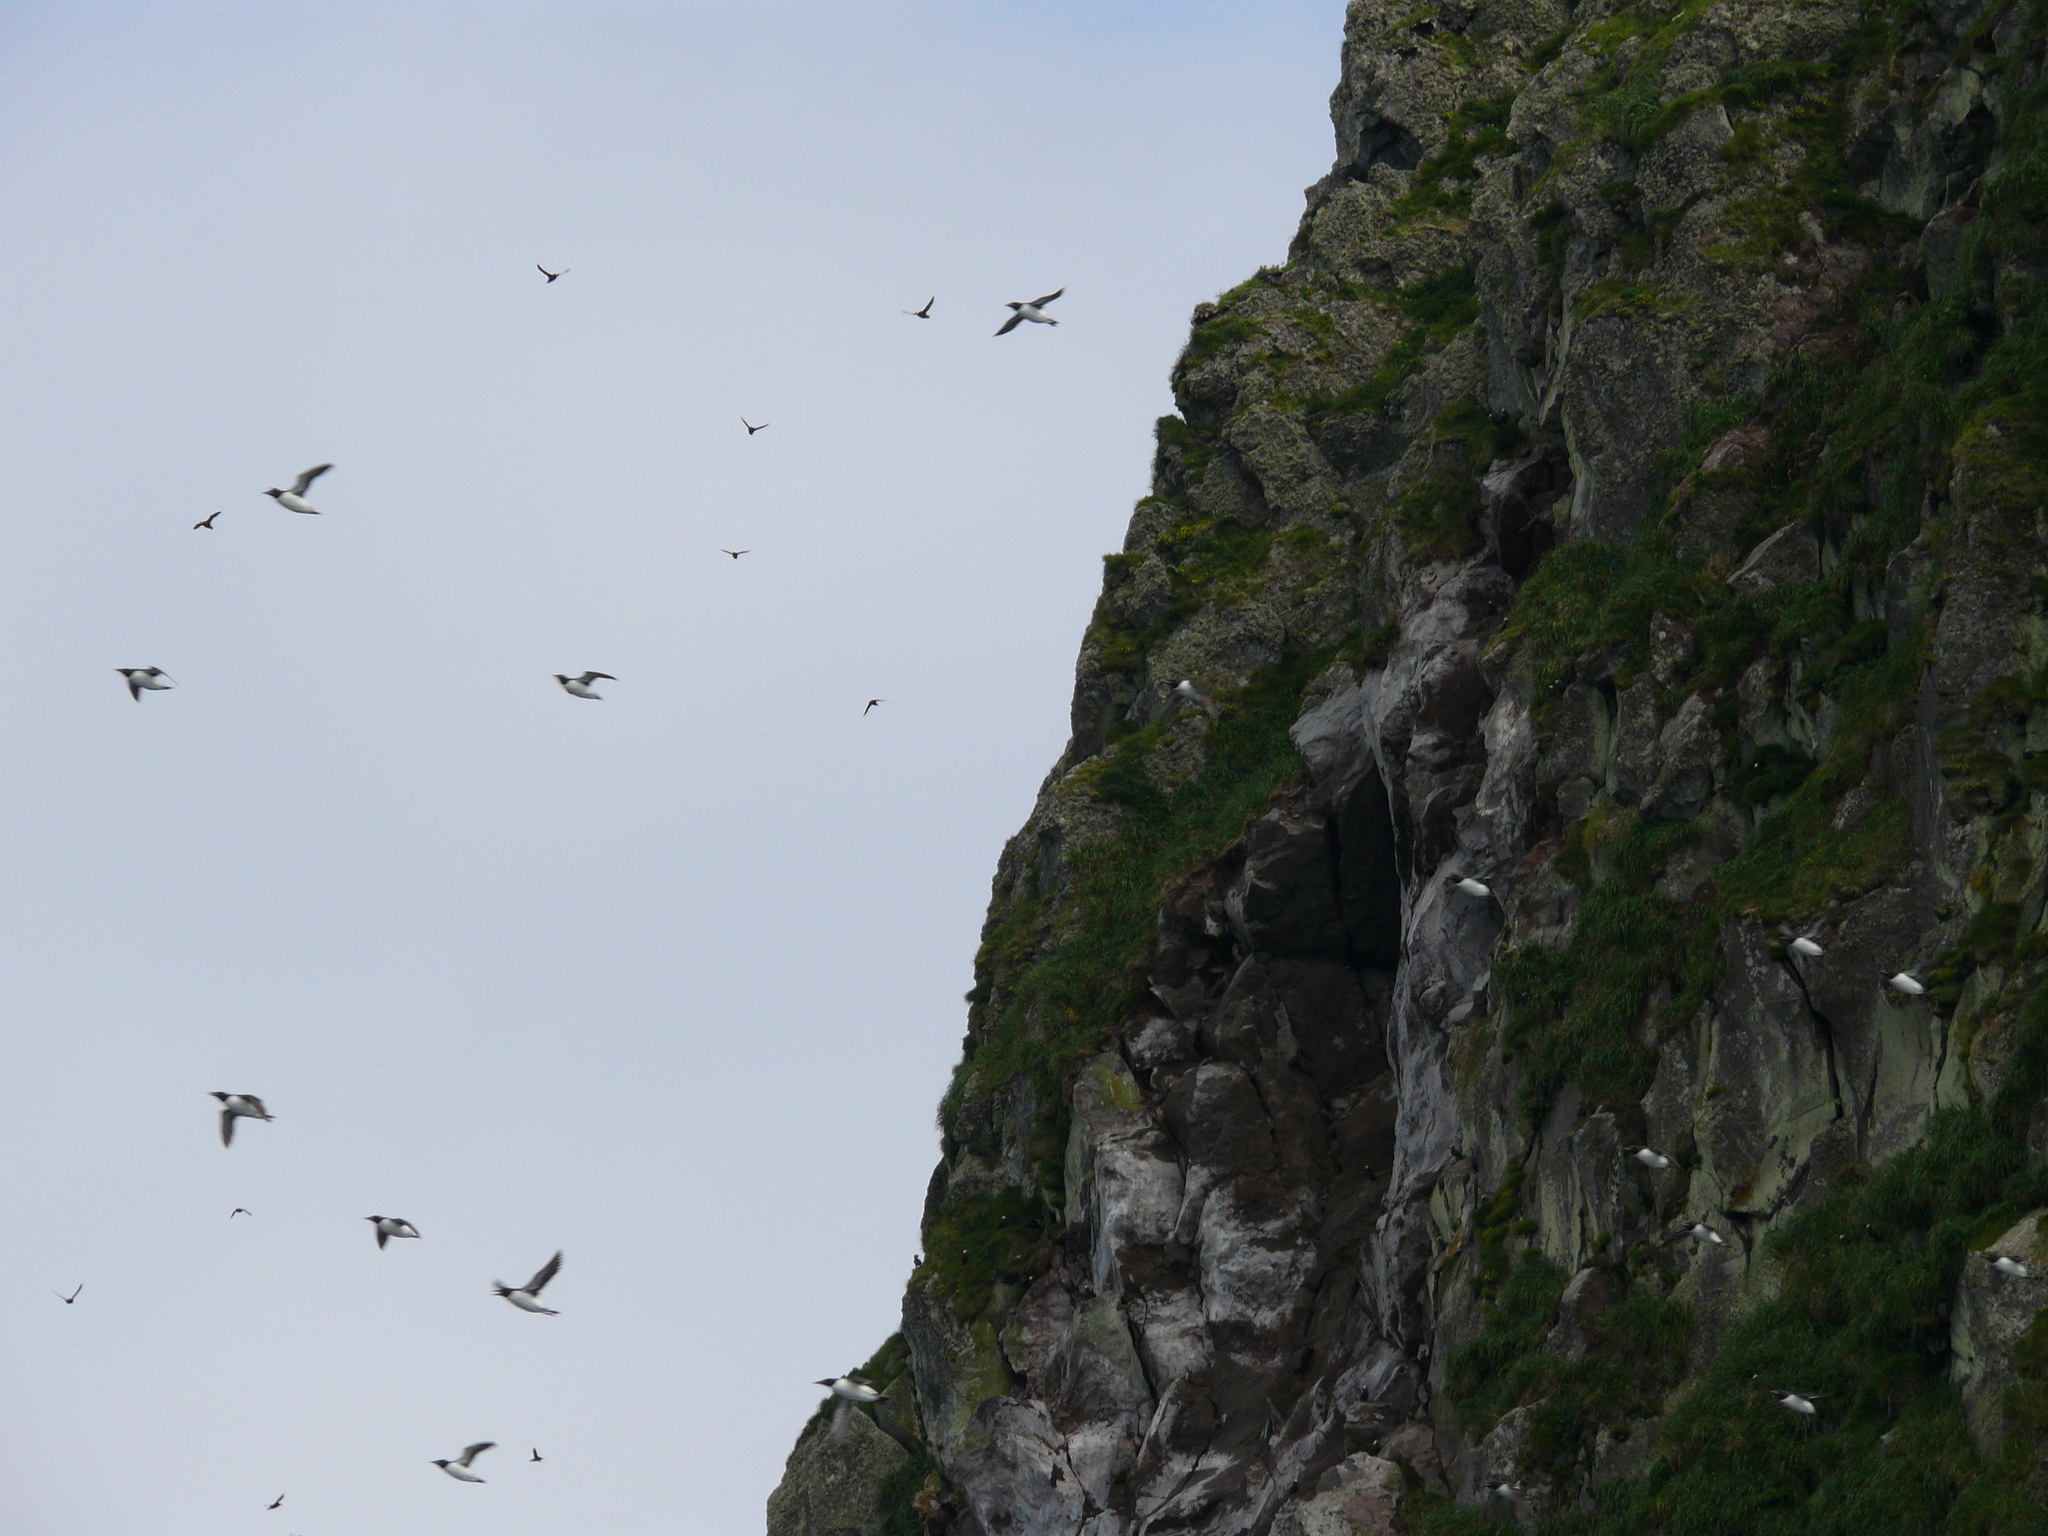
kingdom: Animalia
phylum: Chordata
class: Aves
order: Charadriiformes
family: Alcidae
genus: Uria
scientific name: Uria lomvia
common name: Thick-billed murre
